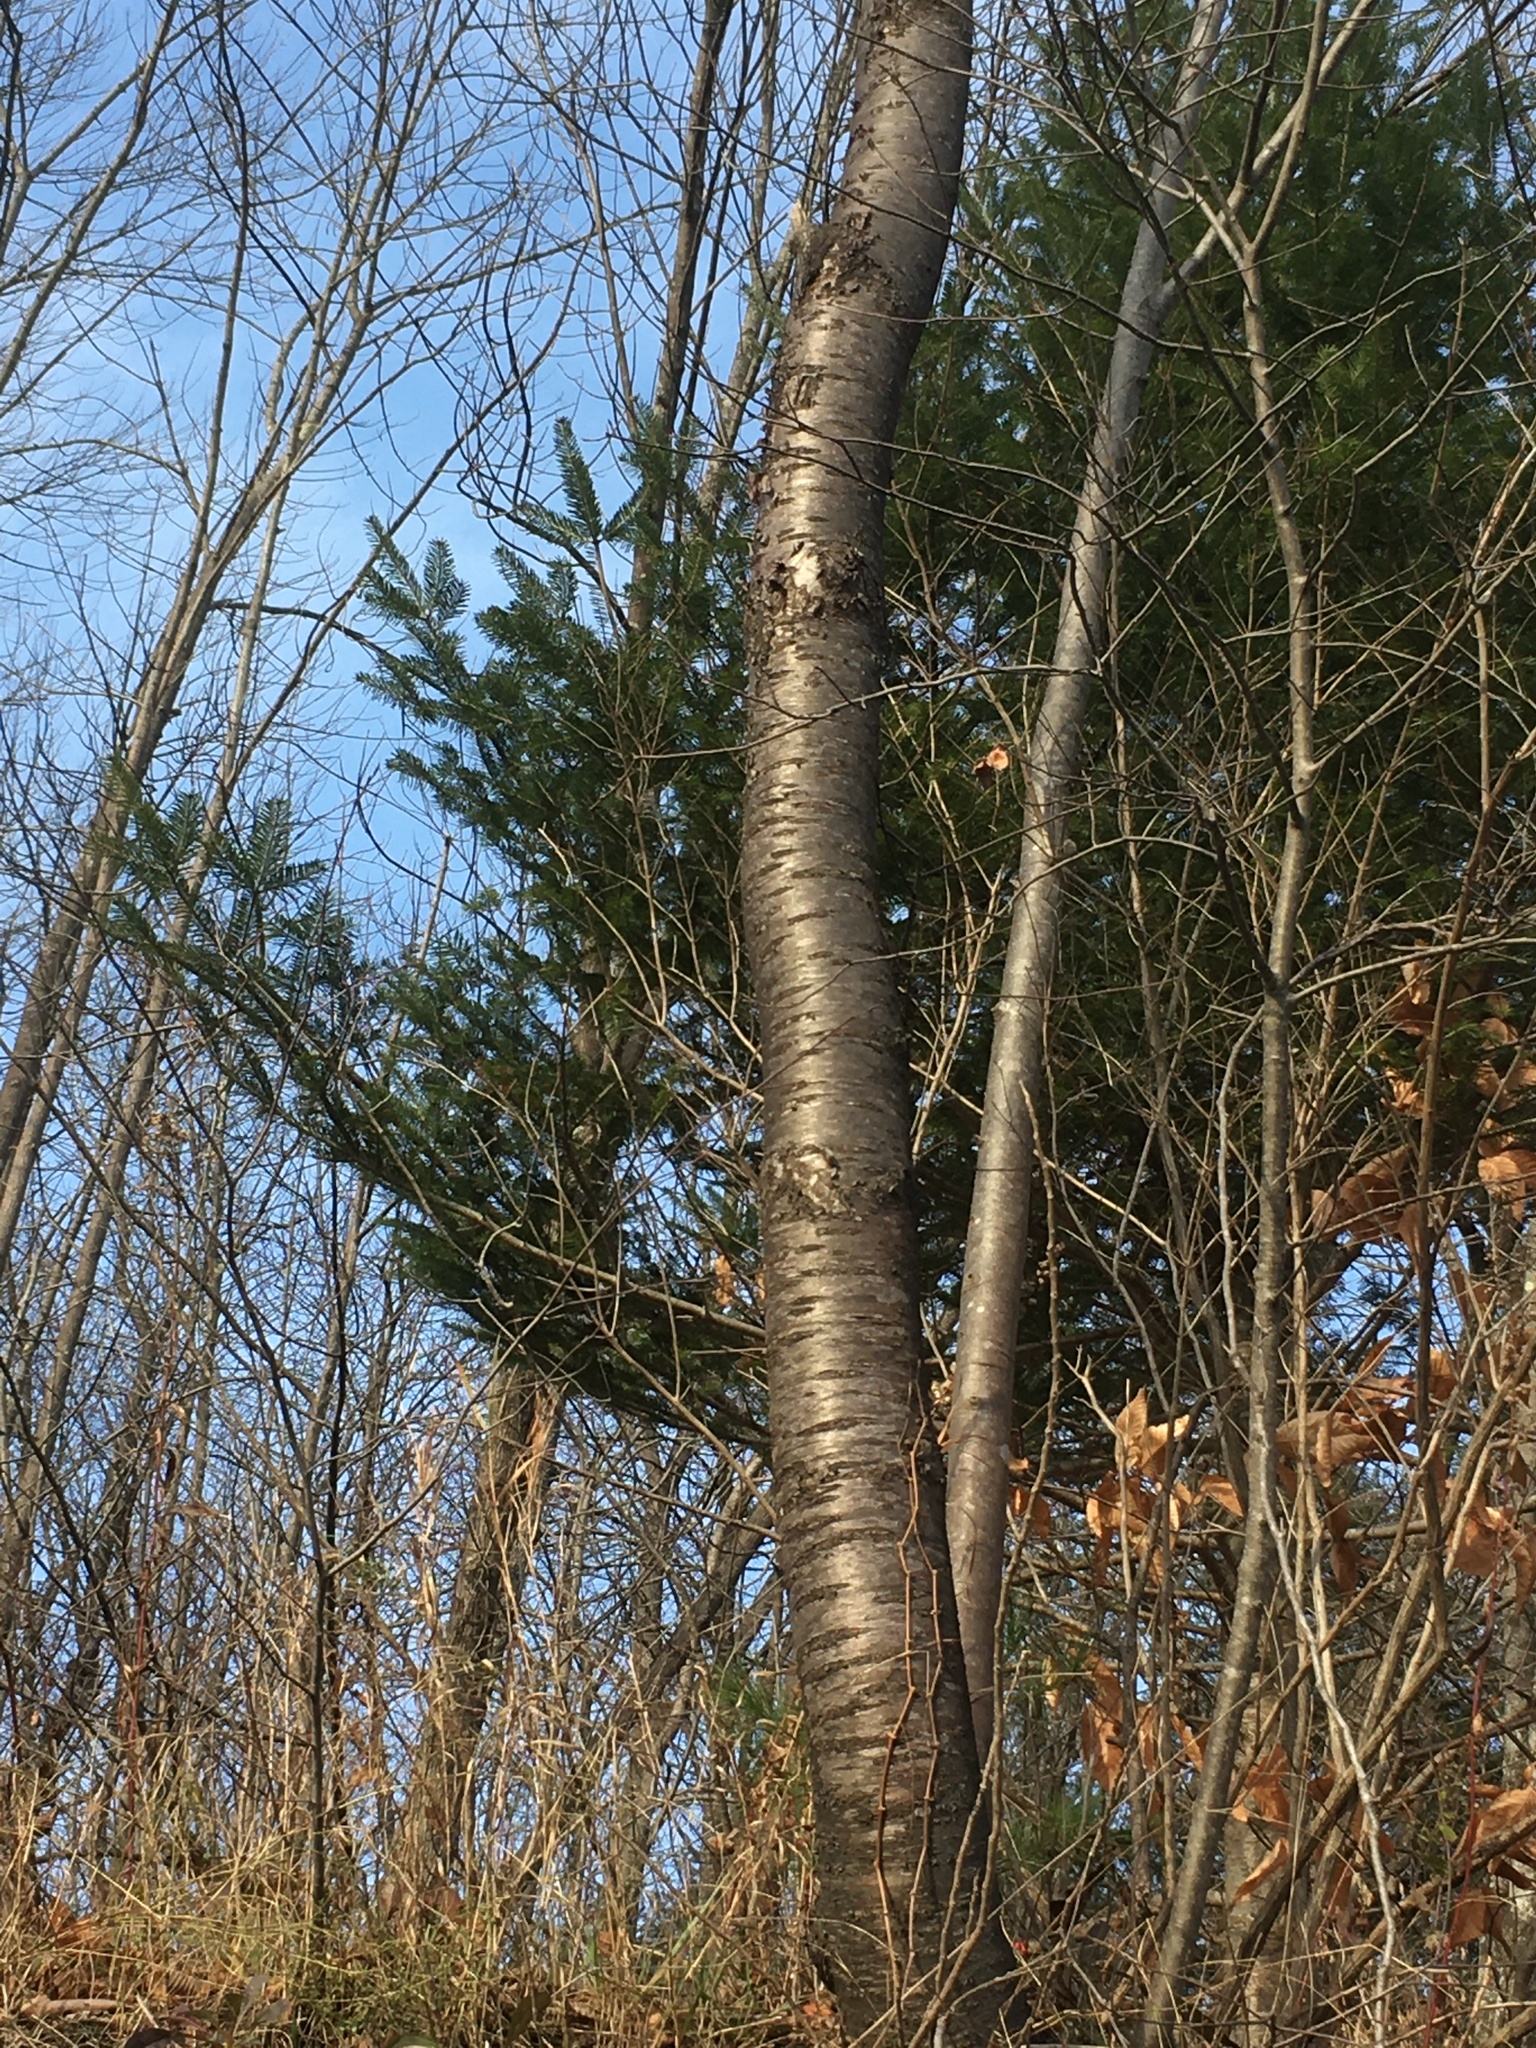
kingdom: Plantae
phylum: Tracheophyta
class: Magnoliopsida
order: Rosales
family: Rosaceae
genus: Prunus
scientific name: Prunus pensylvanica
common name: Pin cherry
